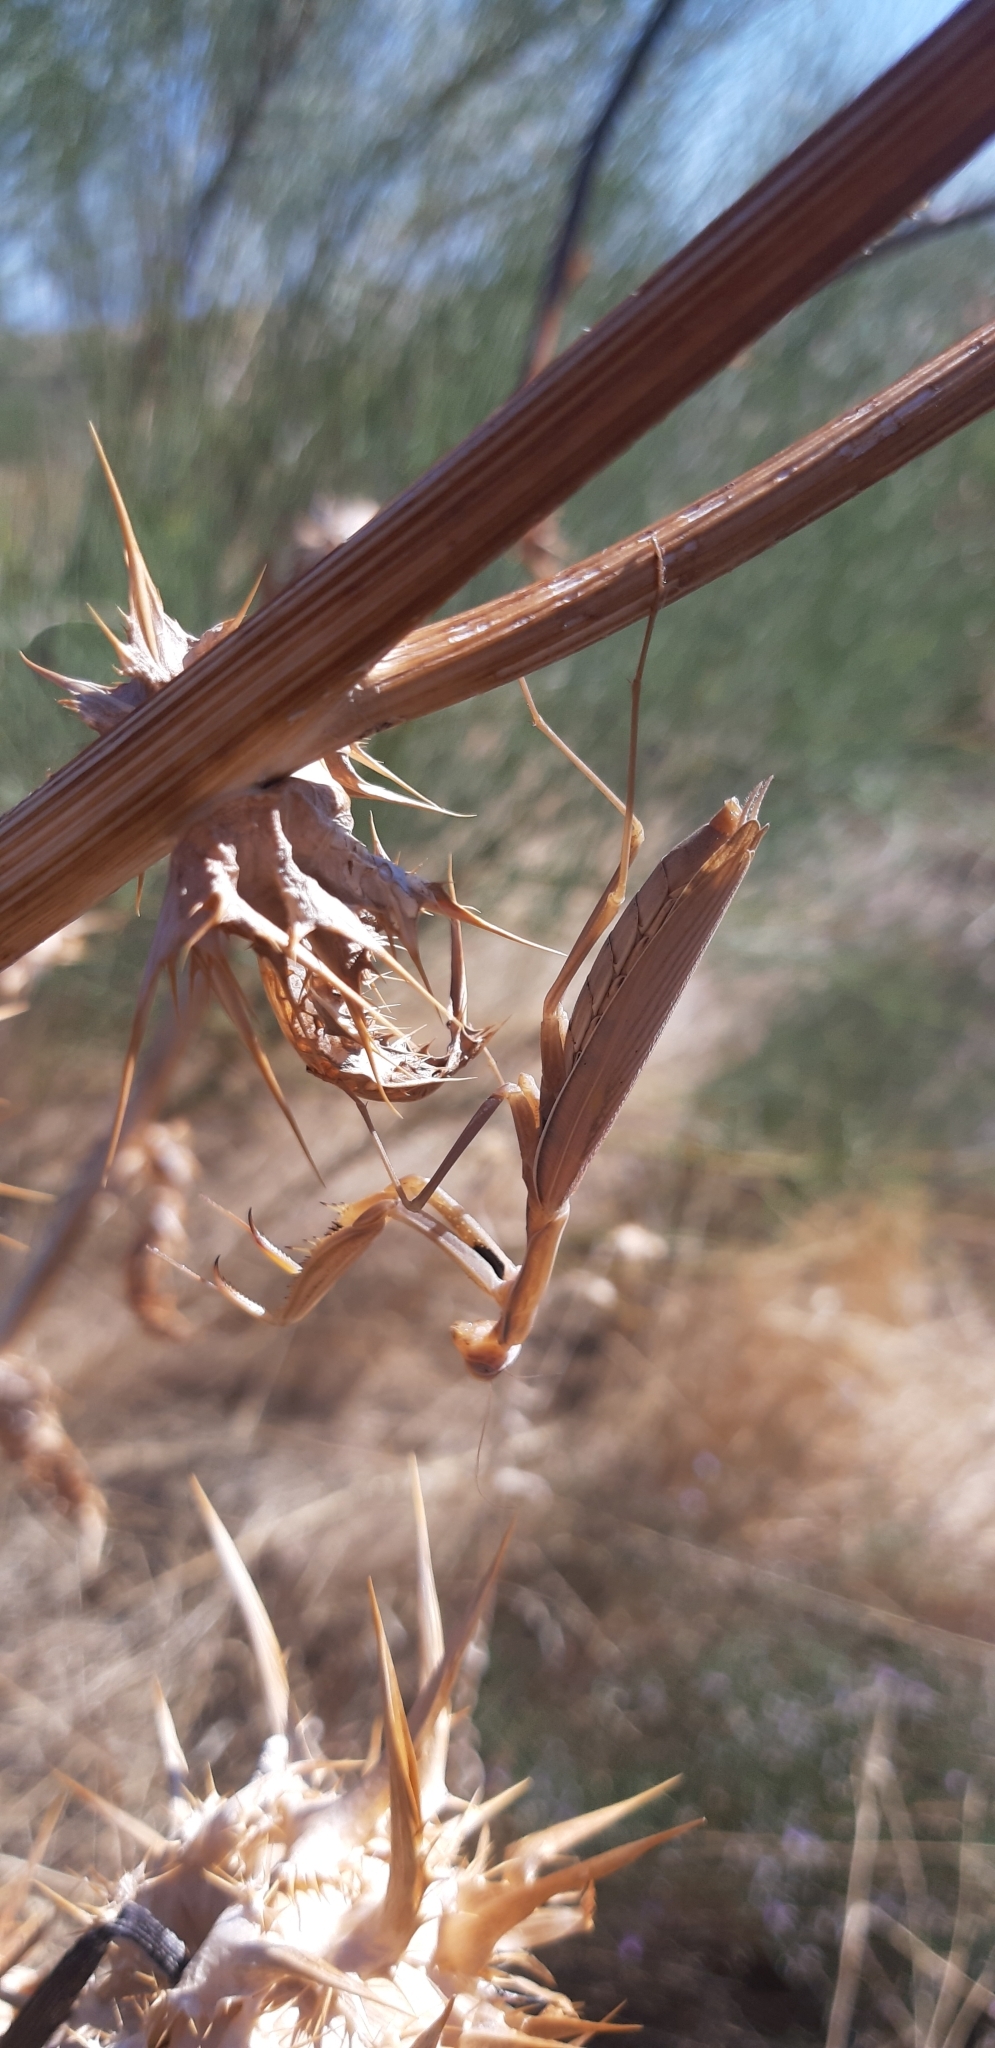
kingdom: Animalia
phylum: Arthropoda
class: Insecta
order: Mantodea
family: Mantidae
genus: Mantis
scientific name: Mantis religiosa
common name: Praying mantis
